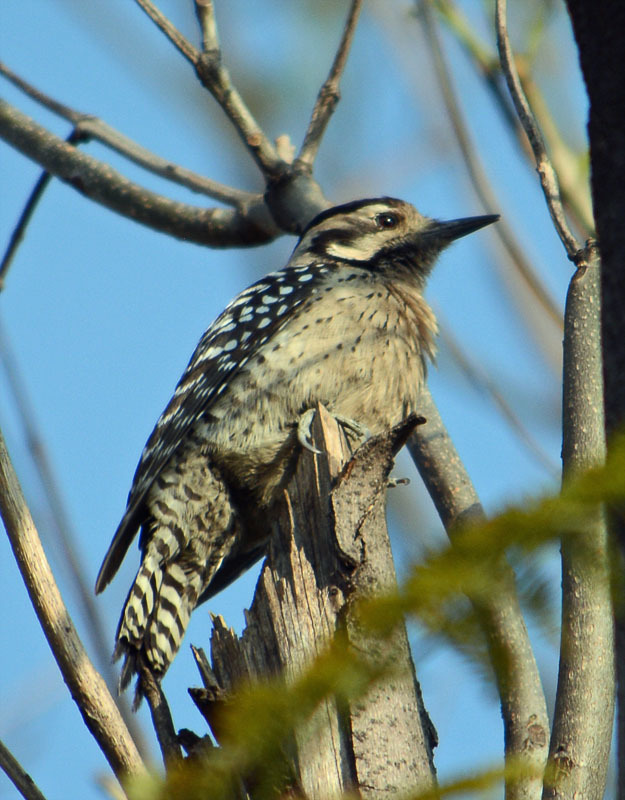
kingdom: Animalia
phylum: Chordata
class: Aves
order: Piciformes
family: Picidae
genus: Dryobates
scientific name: Dryobates scalaris
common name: Ladder-backed woodpecker
